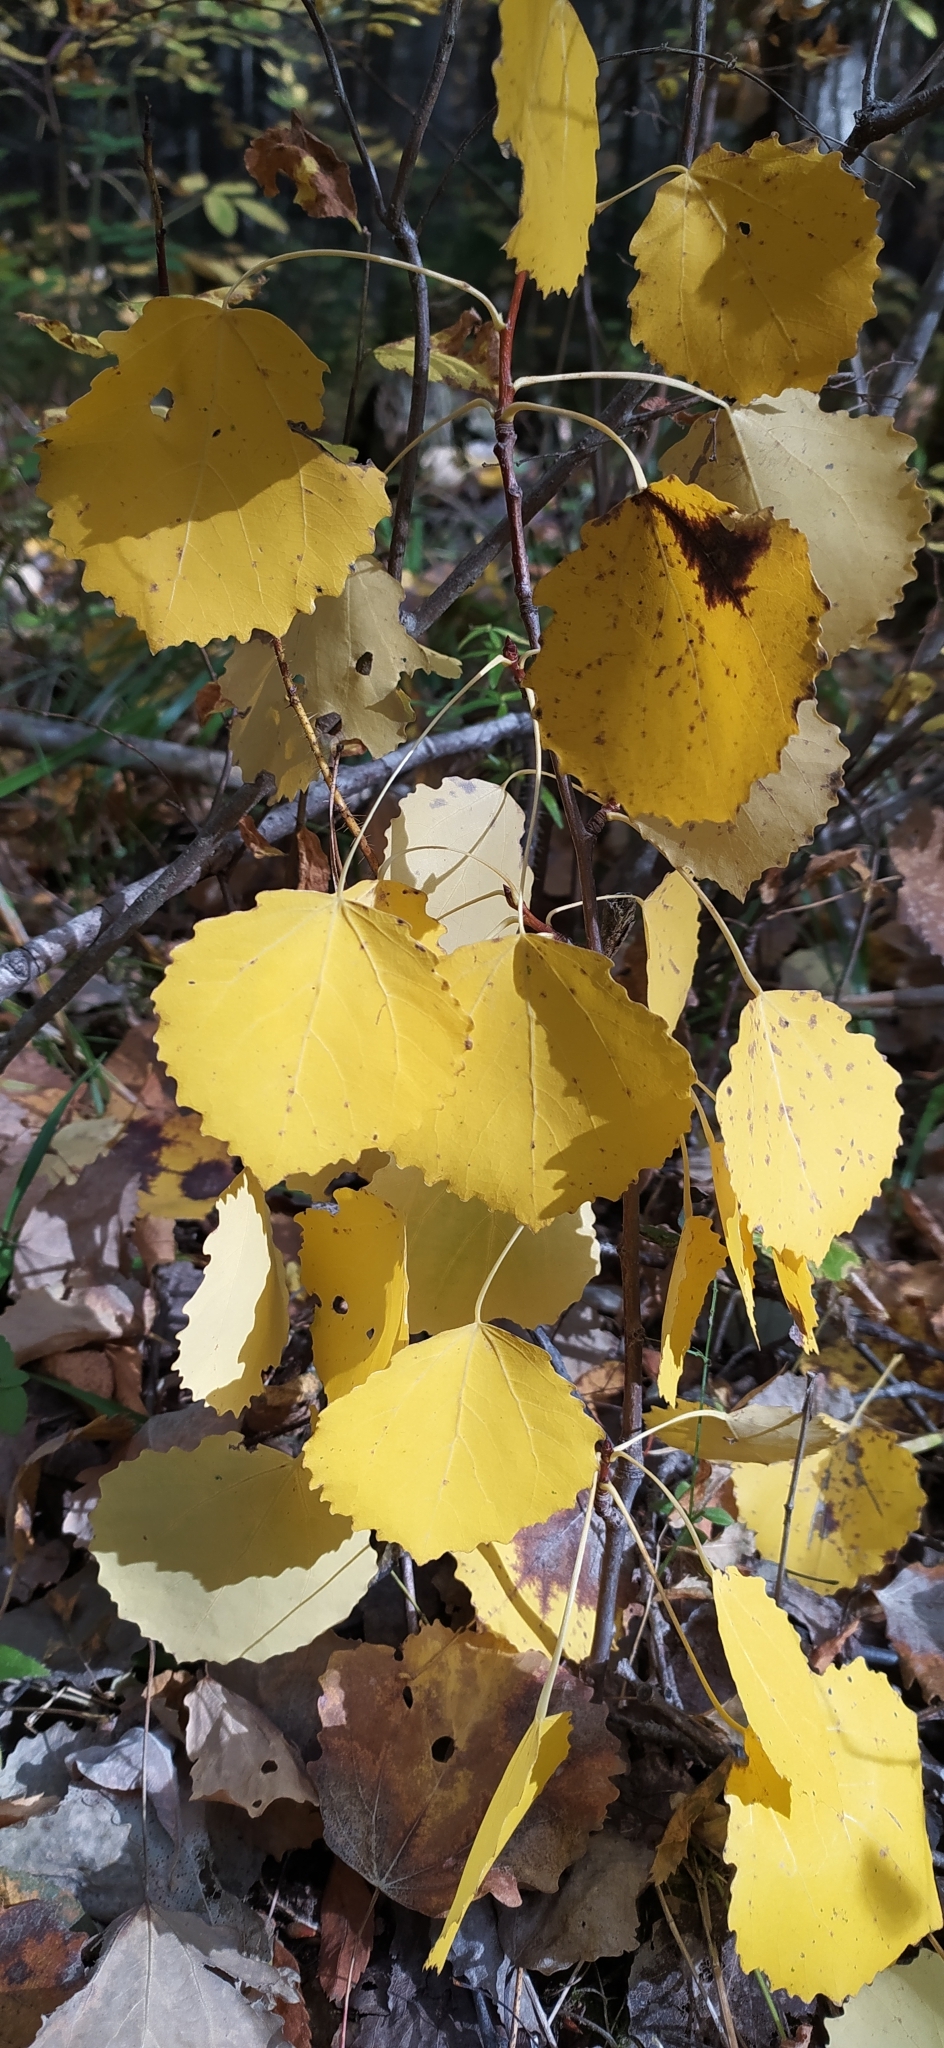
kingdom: Plantae
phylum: Tracheophyta
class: Magnoliopsida
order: Malpighiales
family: Salicaceae
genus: Populus
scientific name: Populus tremula
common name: European aspen
